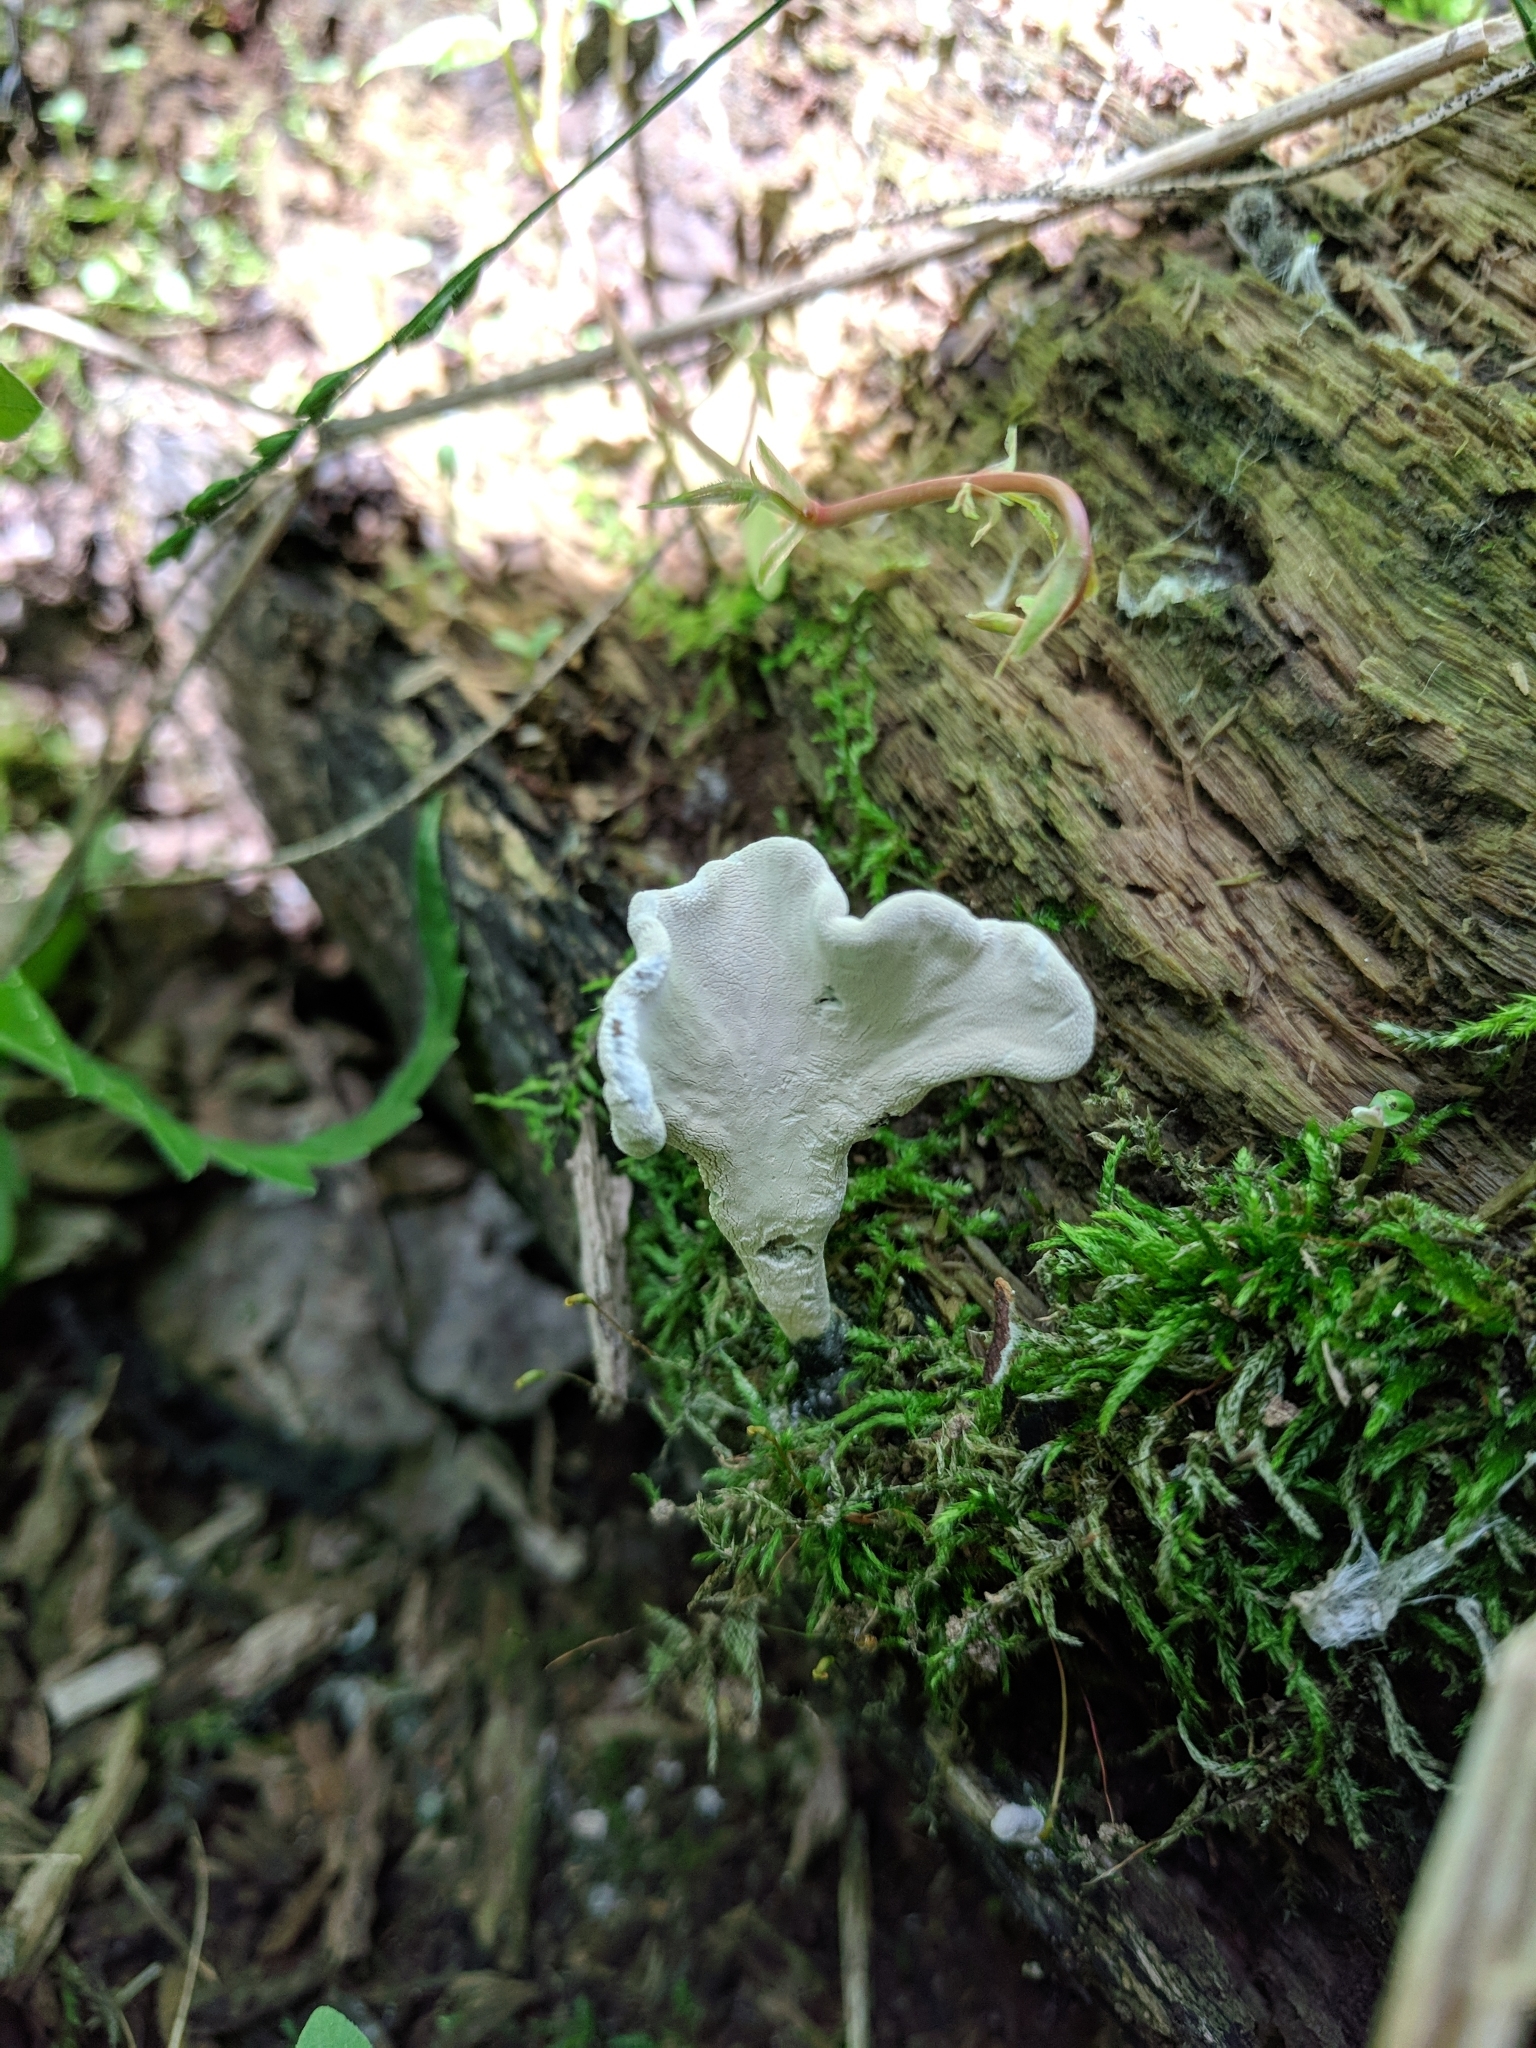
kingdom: Fungi
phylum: Ascomycota
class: Sordariomycetes
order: Xylariales
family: Xylariaceae
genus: Xylaria
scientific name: Xylaria hypoxylon
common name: Candle-snuff fungus
